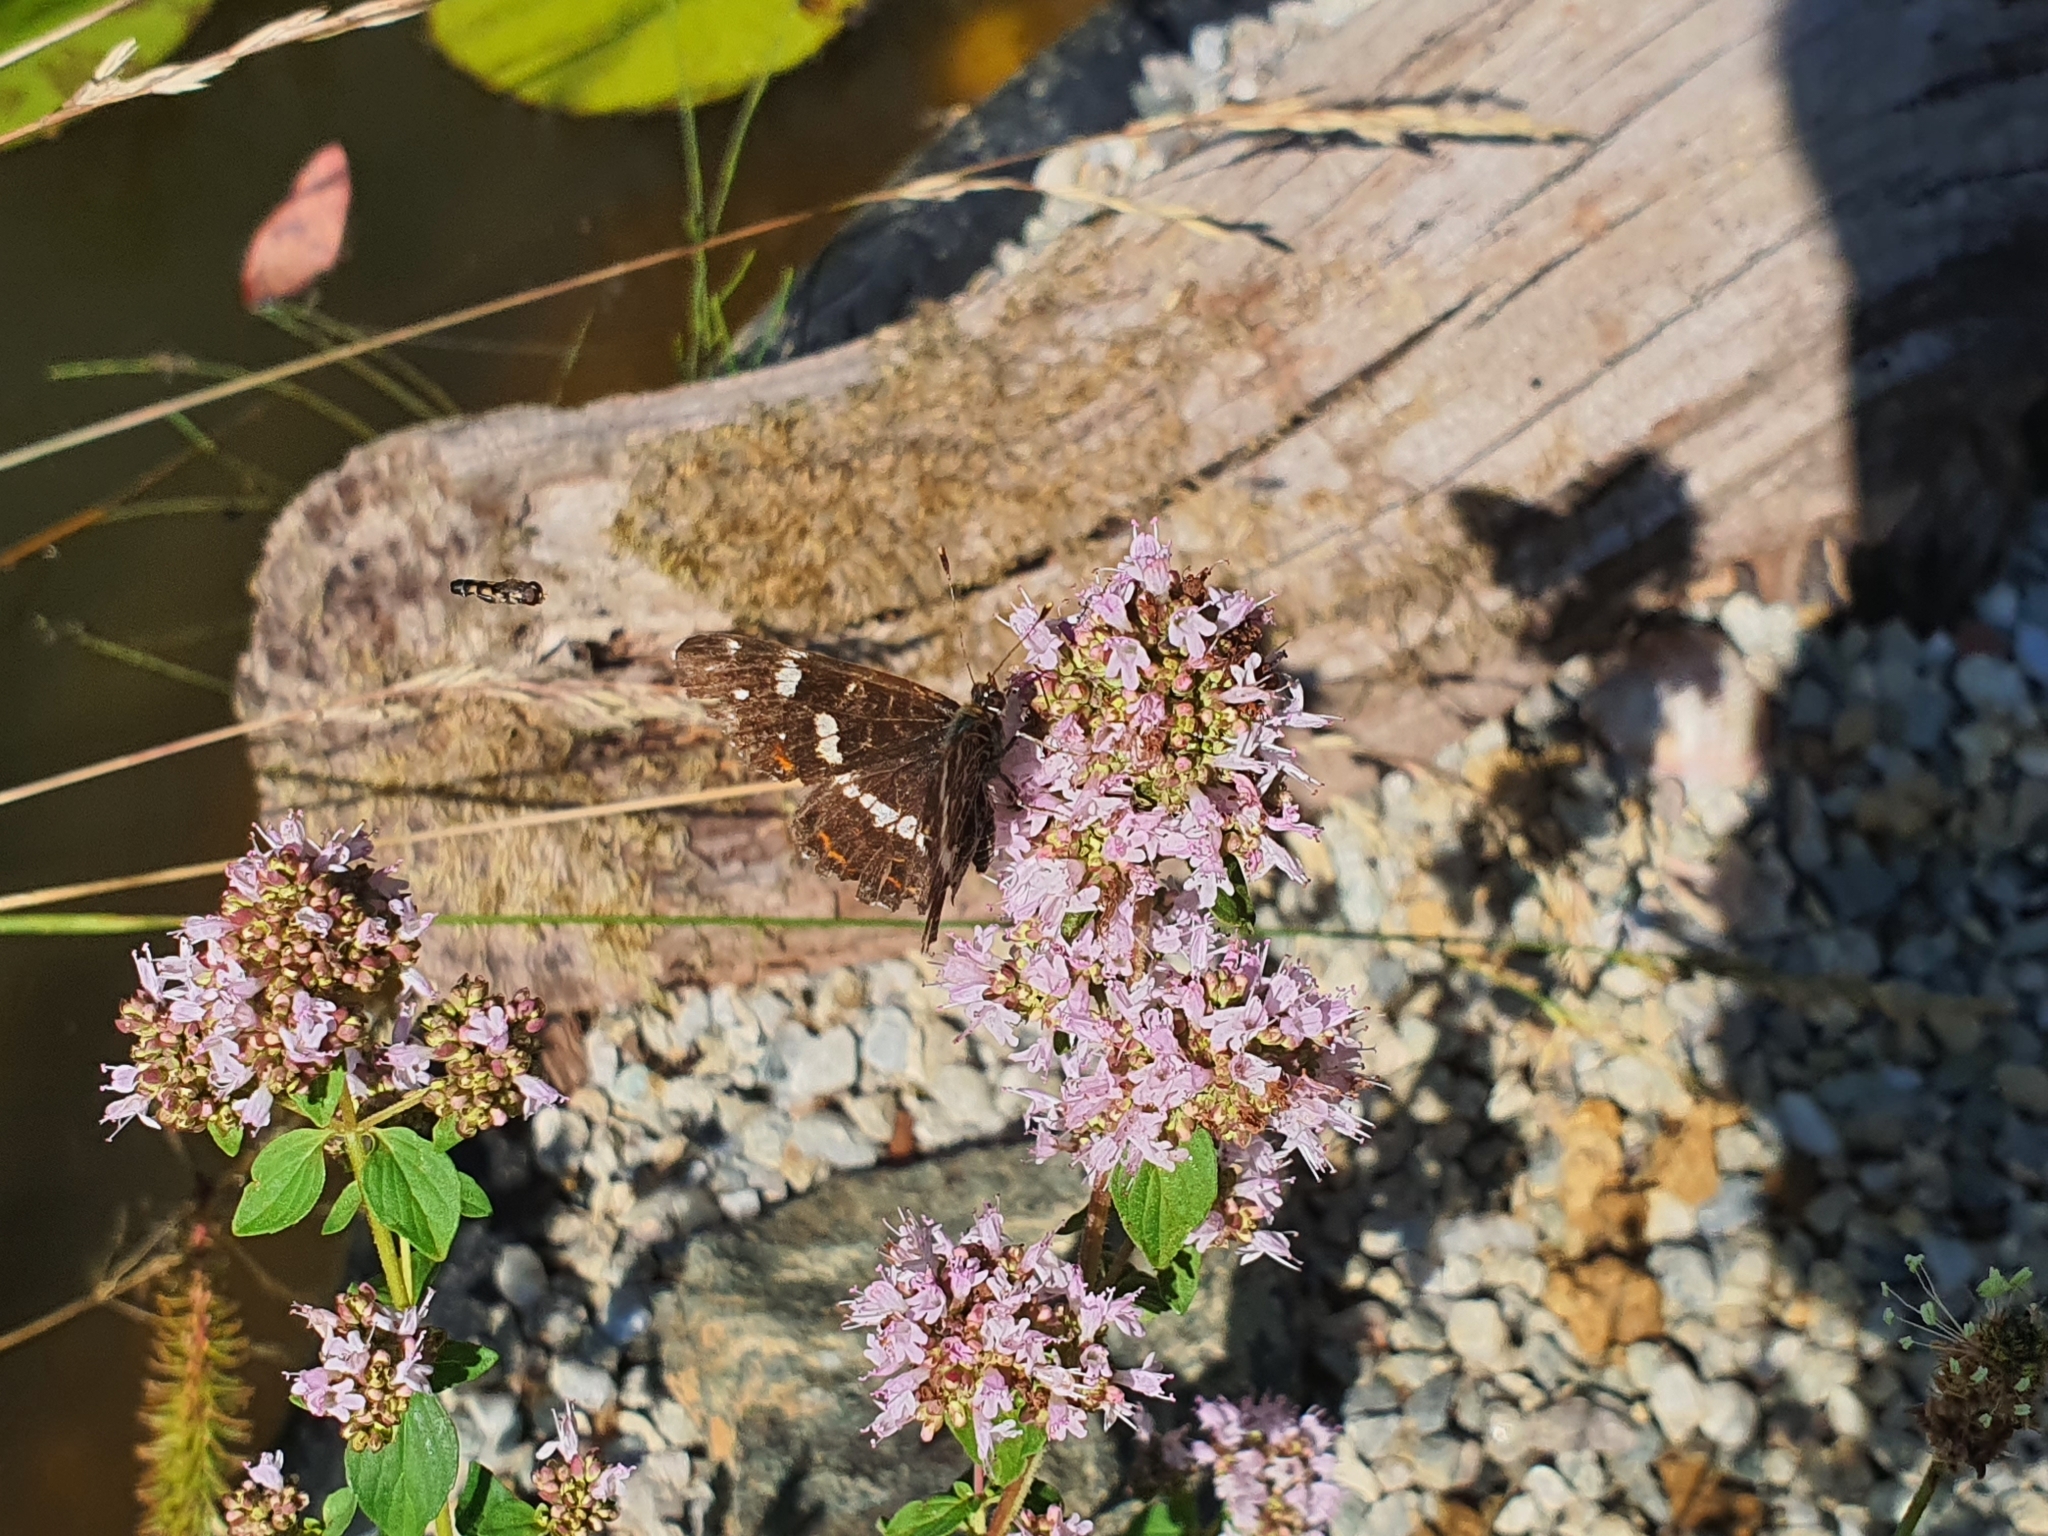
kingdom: Animalia
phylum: Arthropoda
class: Insecta
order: Lepidoptera
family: Nymphalidae
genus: Araschnia
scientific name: Araschnia levana
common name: Map butterfly
